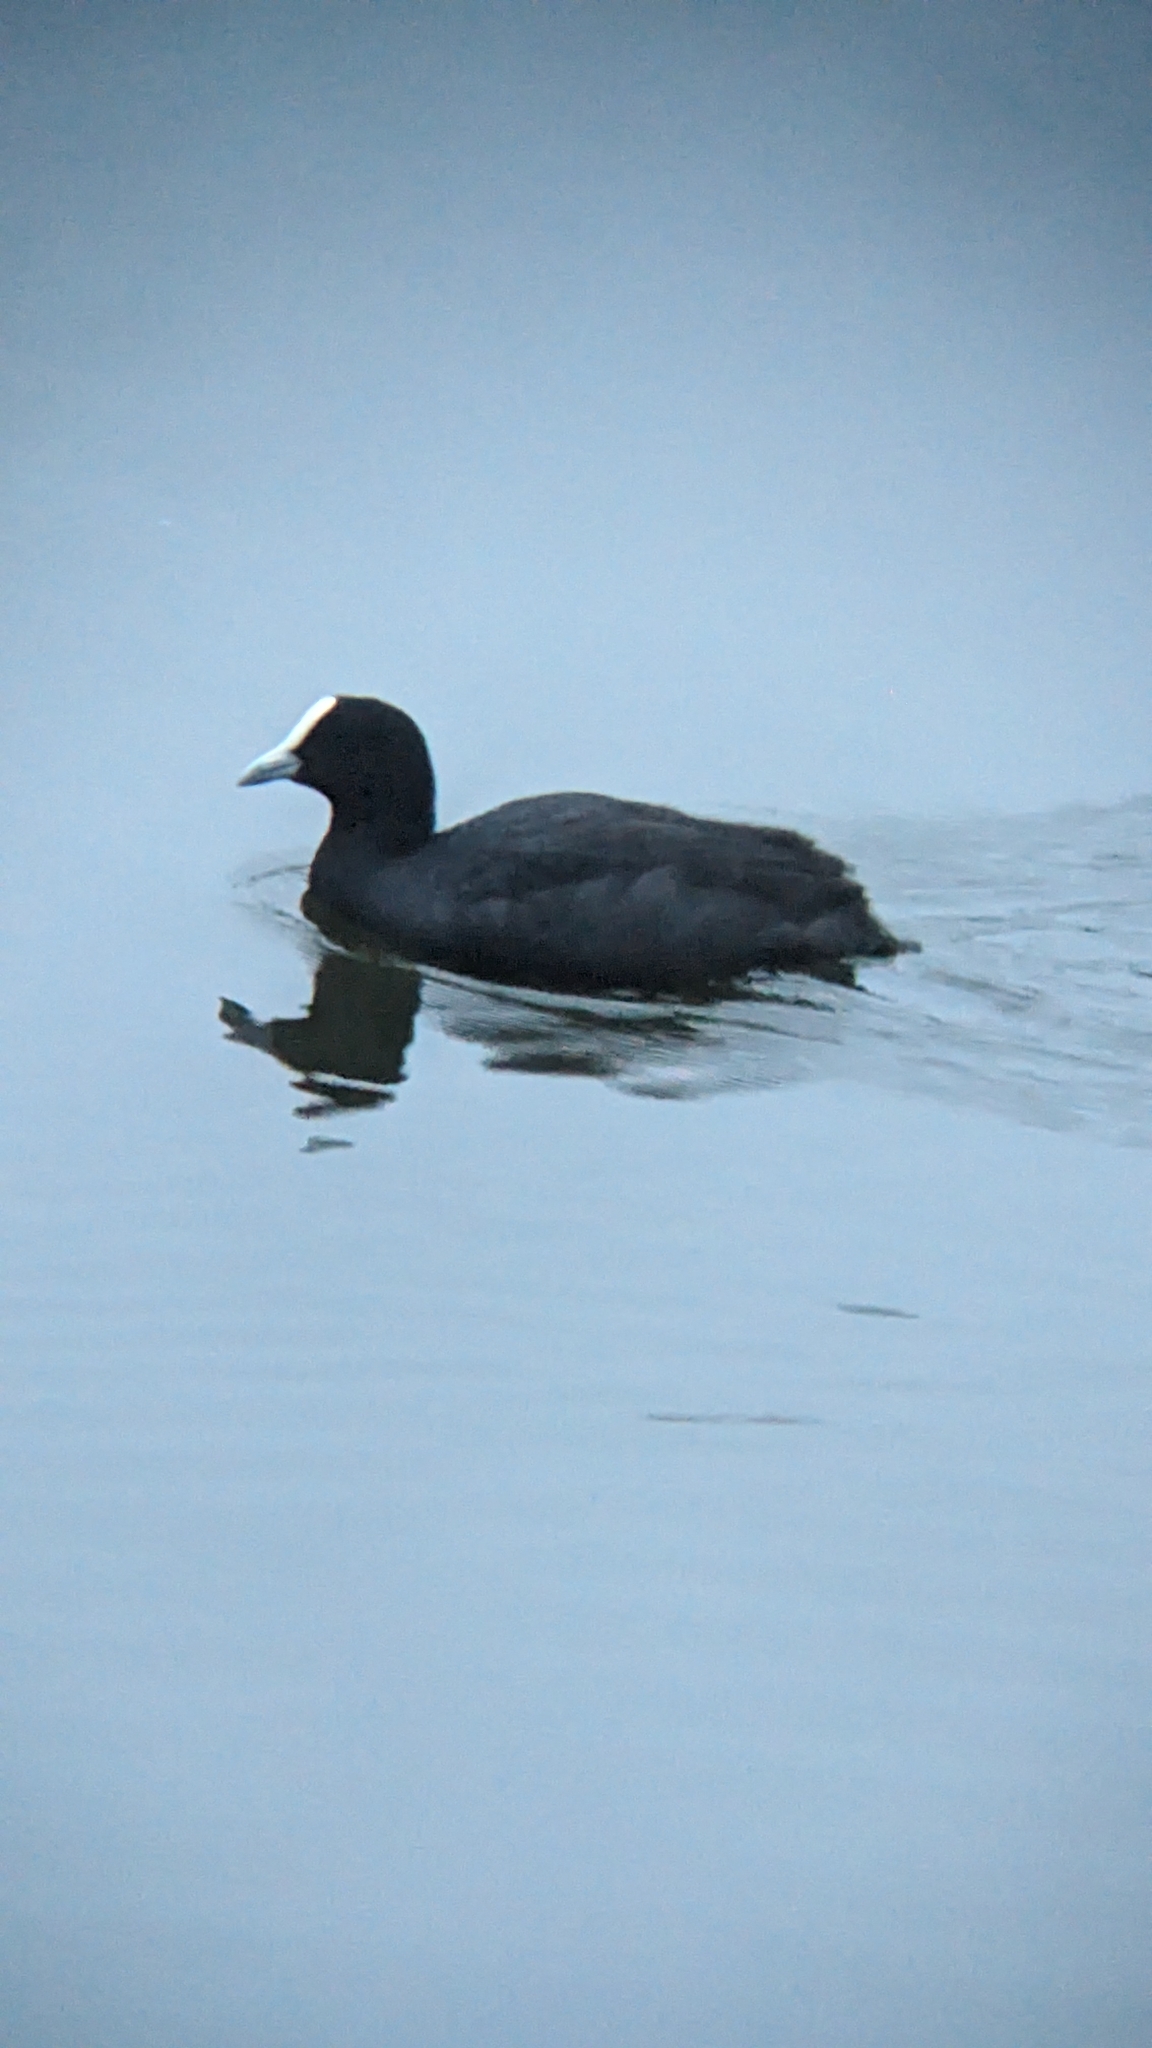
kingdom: Animalia
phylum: Chordata
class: Aves
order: Gruiformes
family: Rallidae
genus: Fulica
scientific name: Fulica atra
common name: Eurasian coot
